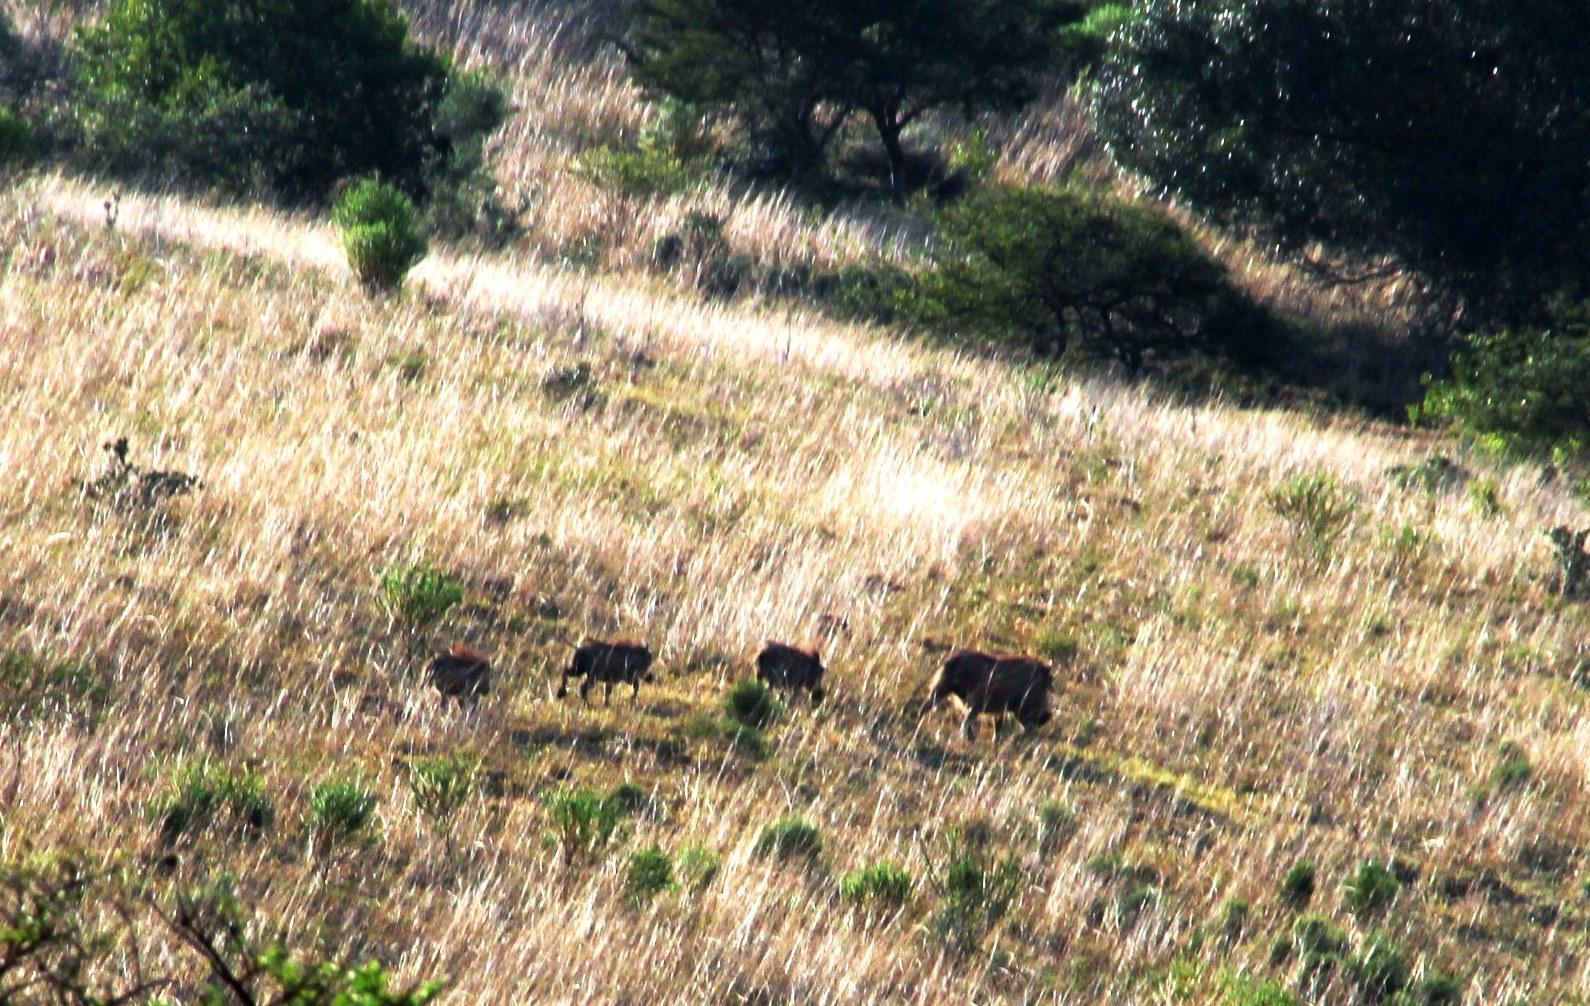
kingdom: Animalia
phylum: Chordata
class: Mammalia
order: Artiodactyla
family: Suidae
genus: Phacochoerus
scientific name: Phacochoerus africanus
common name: Common warthog
